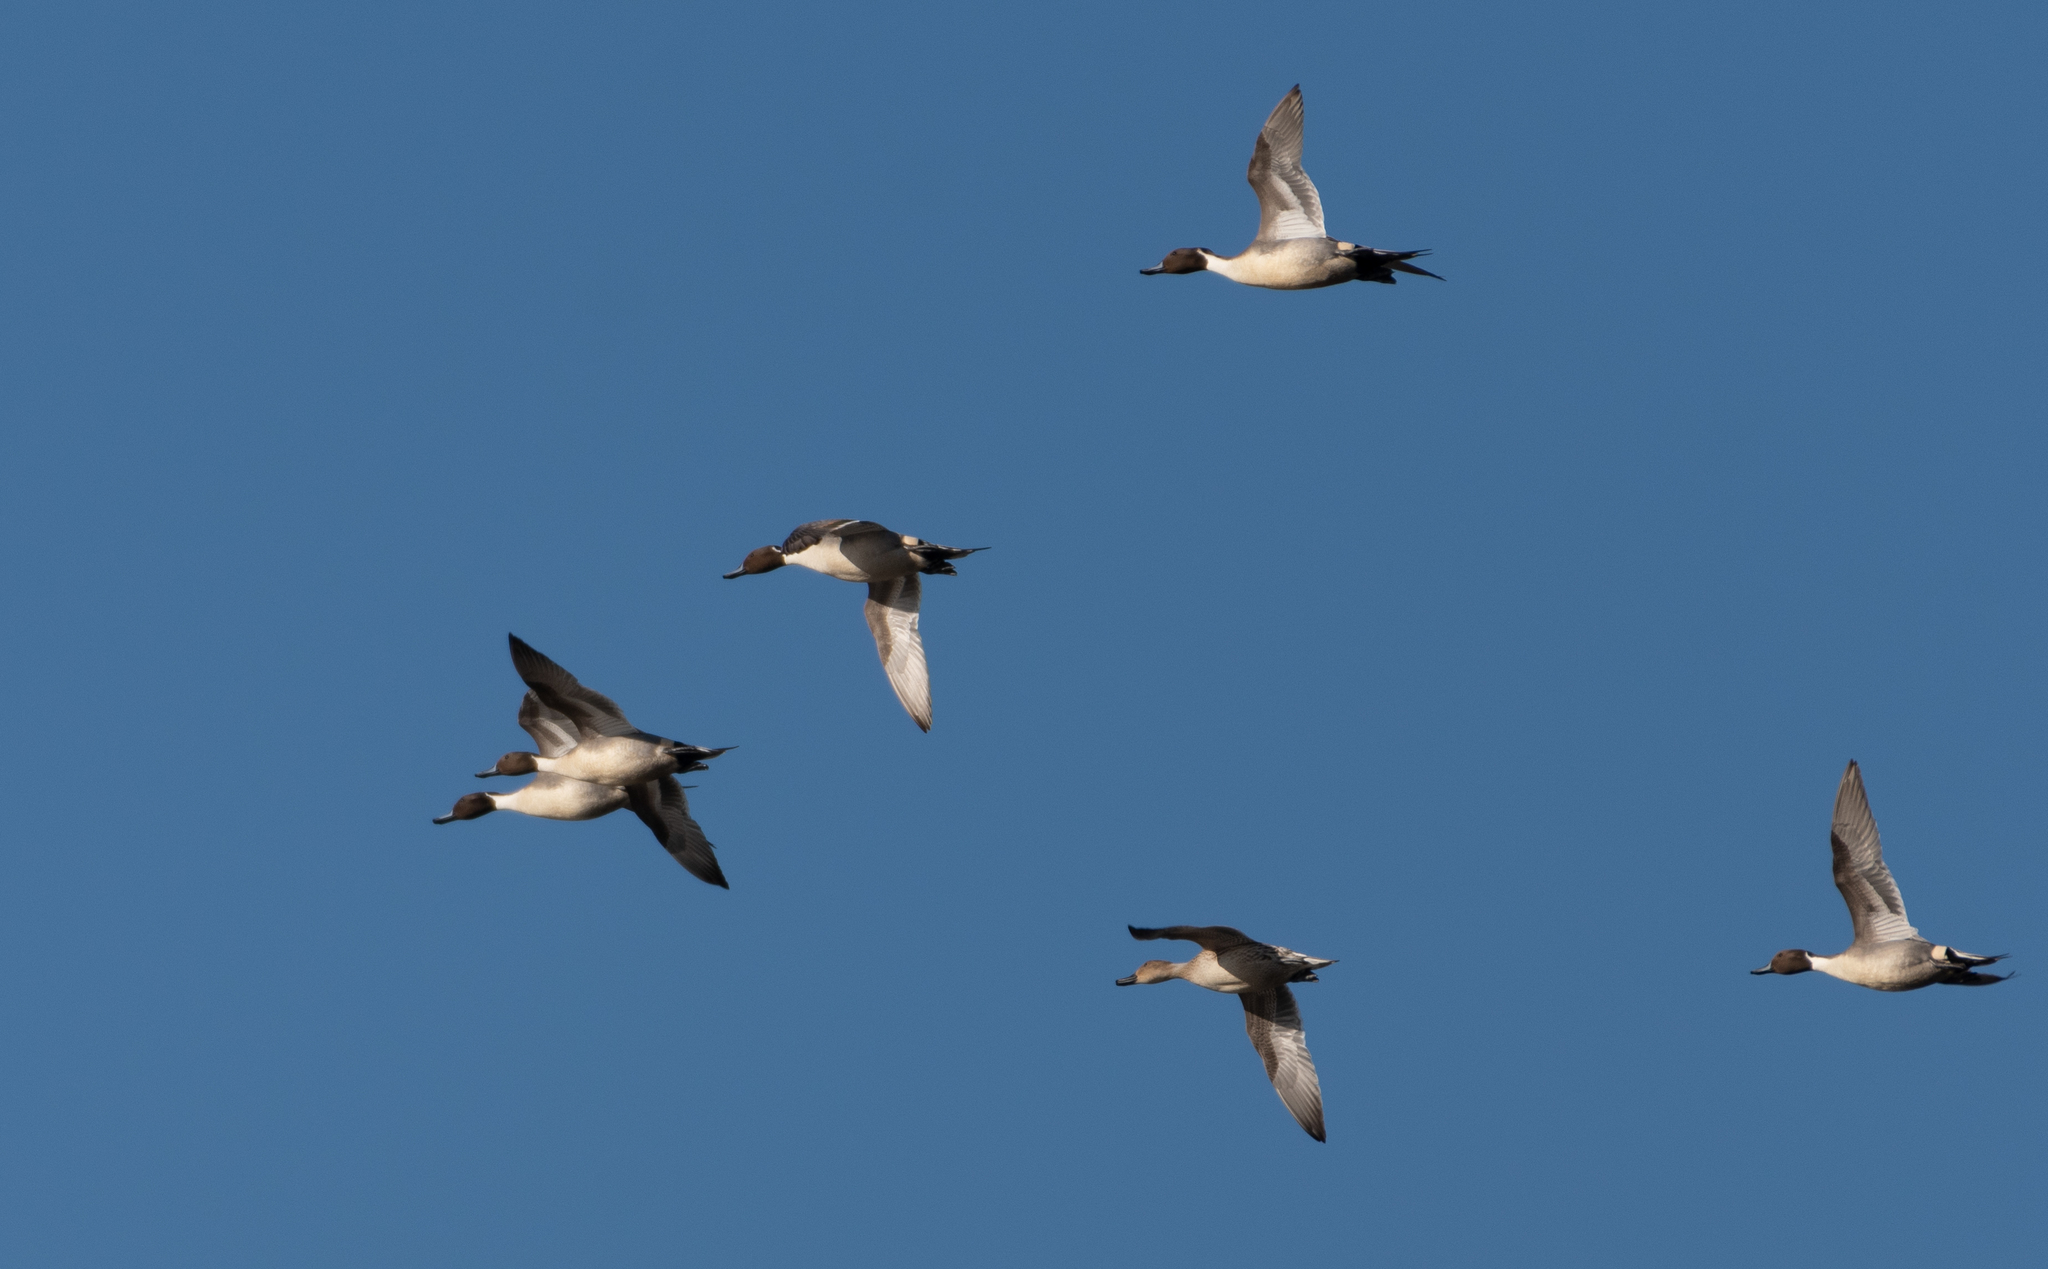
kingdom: Animalia
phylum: Chordata
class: Aves
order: Anseriformes
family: Anatidae
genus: Anas
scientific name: Anas acuta
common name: Northern pintail
